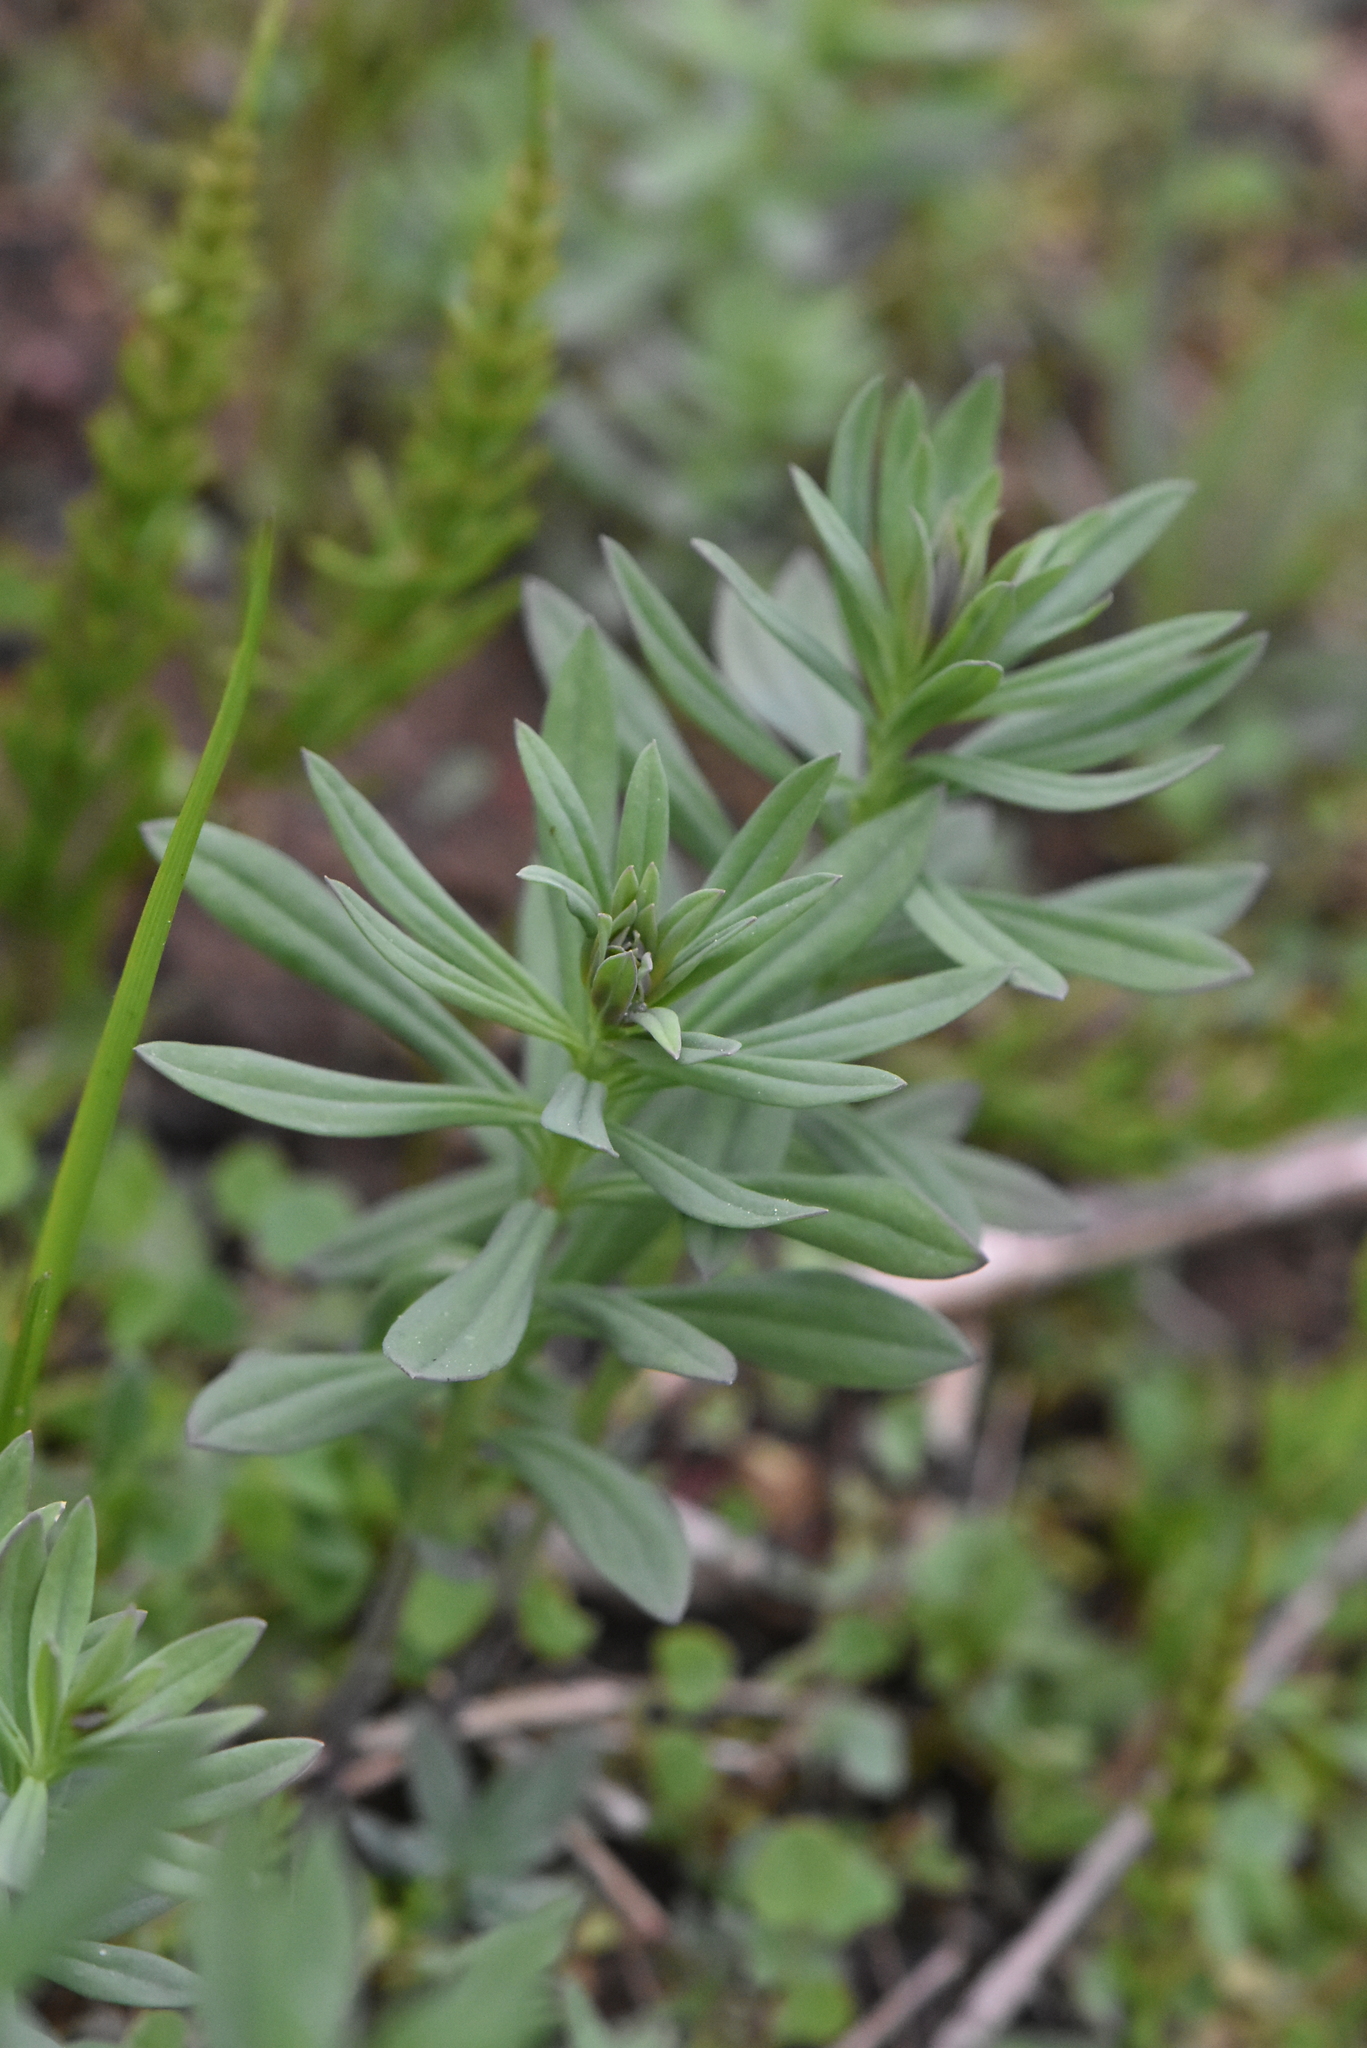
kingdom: Plantae
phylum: Tracheophyta
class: Magnoliopsida
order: Lamiales
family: Plantaginaceae
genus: Linaria
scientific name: Linaria vulgaris
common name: Butter and eggs
